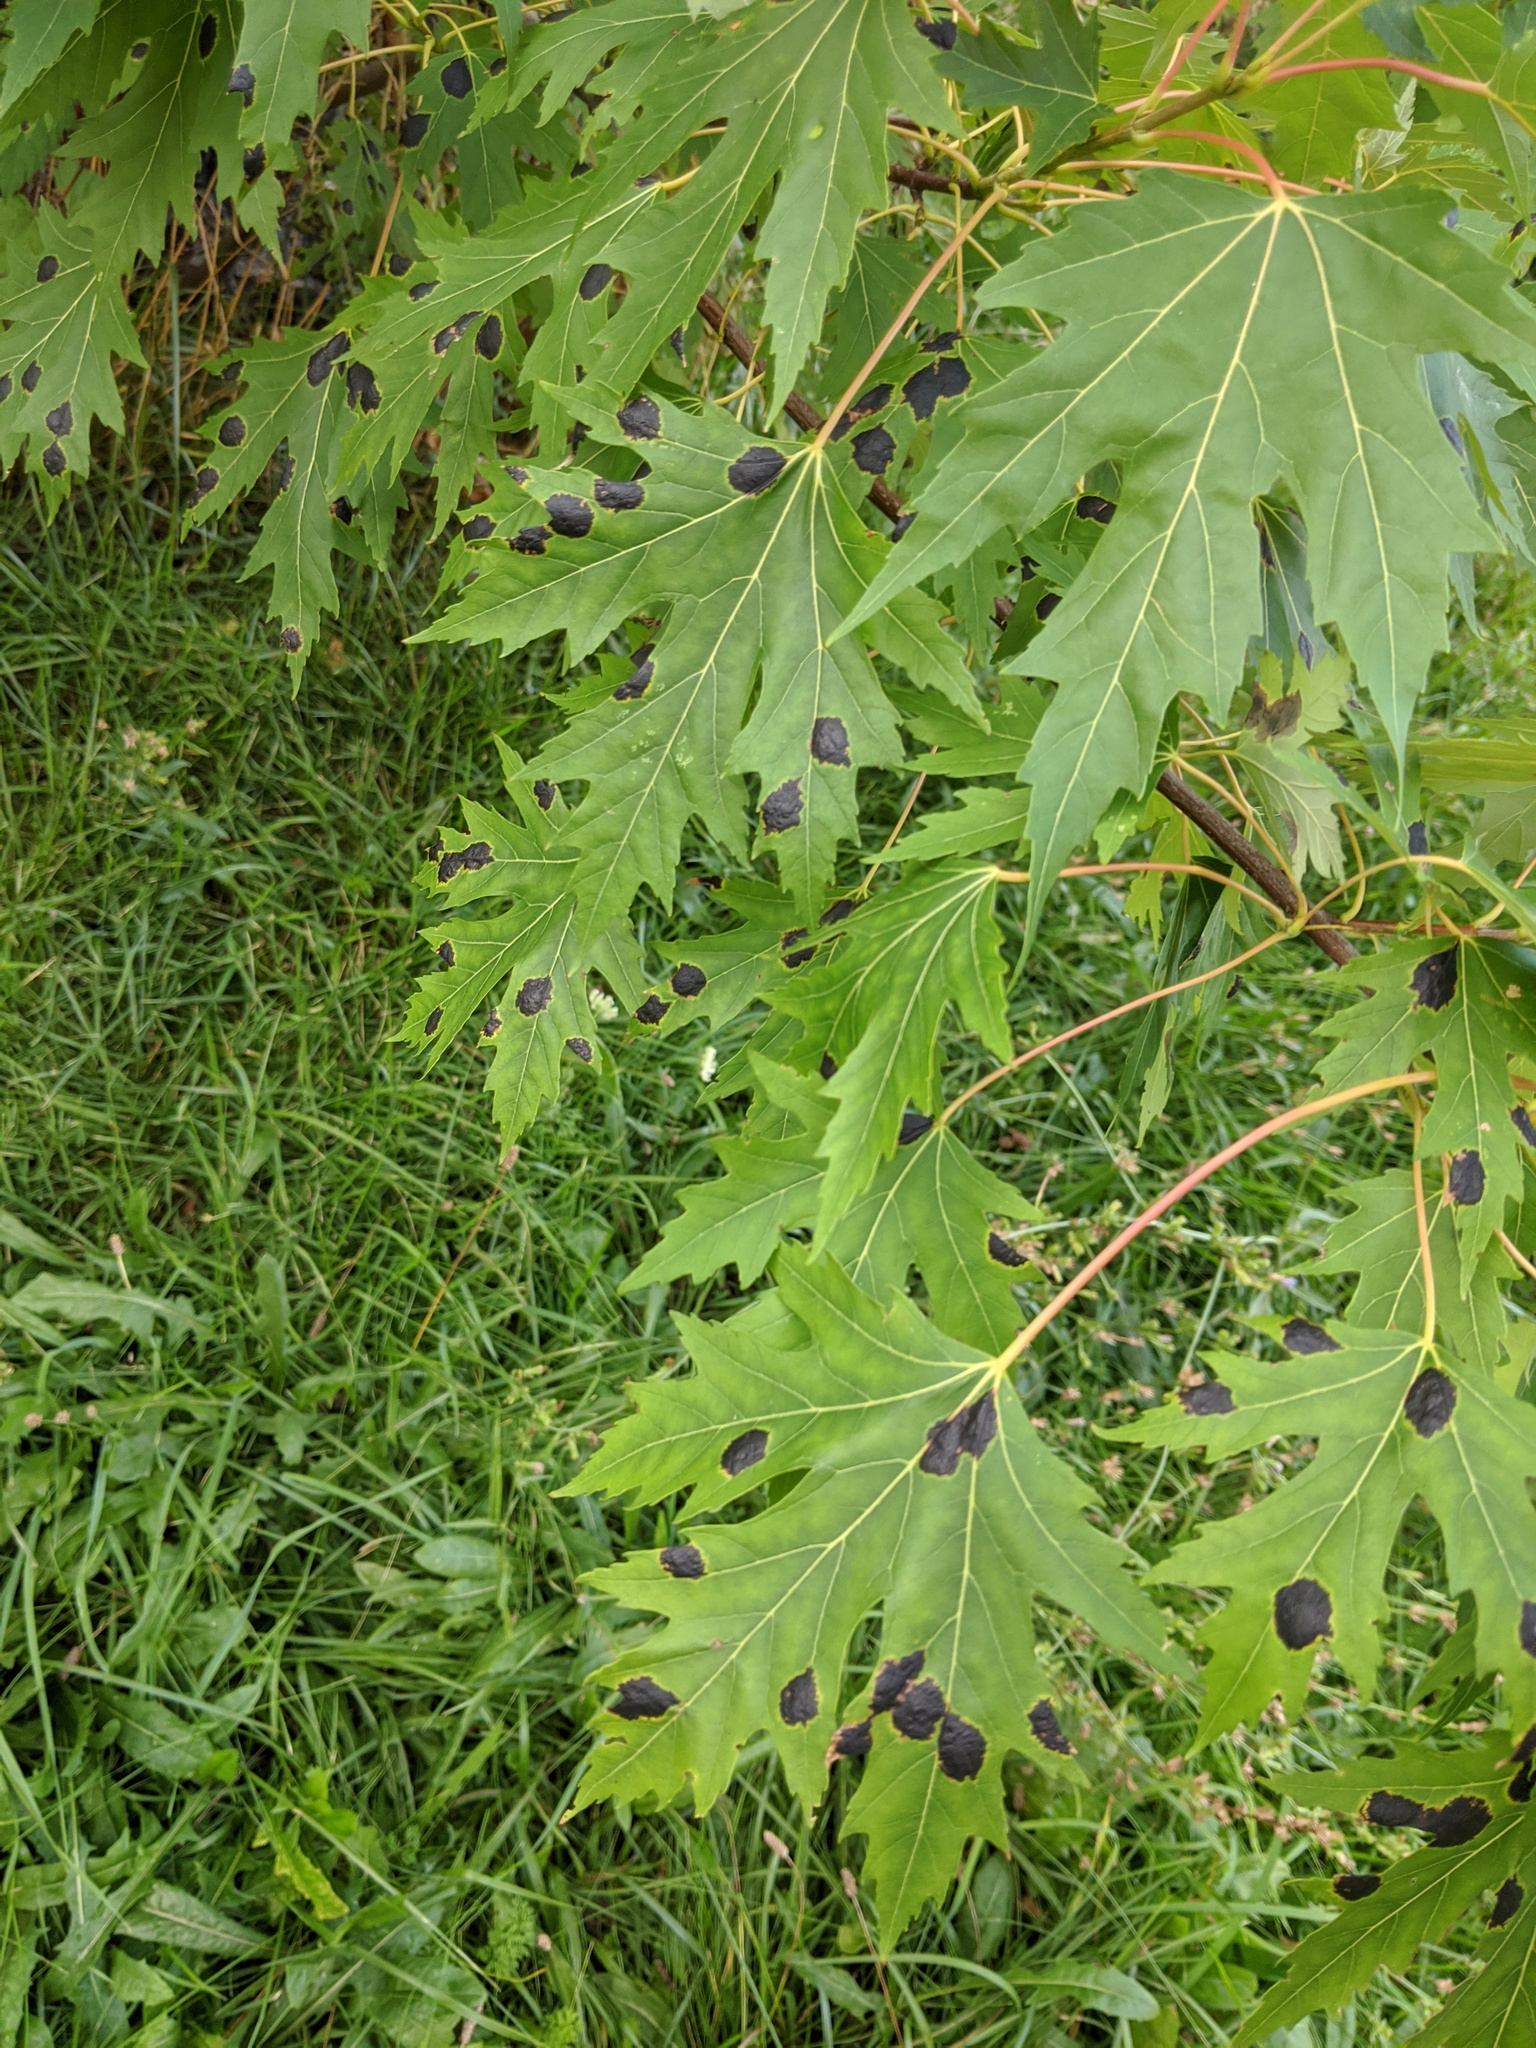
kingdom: Fungi
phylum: Ascomycota
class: Leotiomycetes
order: Rhytismatales
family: Rhytismataceae
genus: Rhytisma
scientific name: Rhytisma americanum
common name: American tar spot
